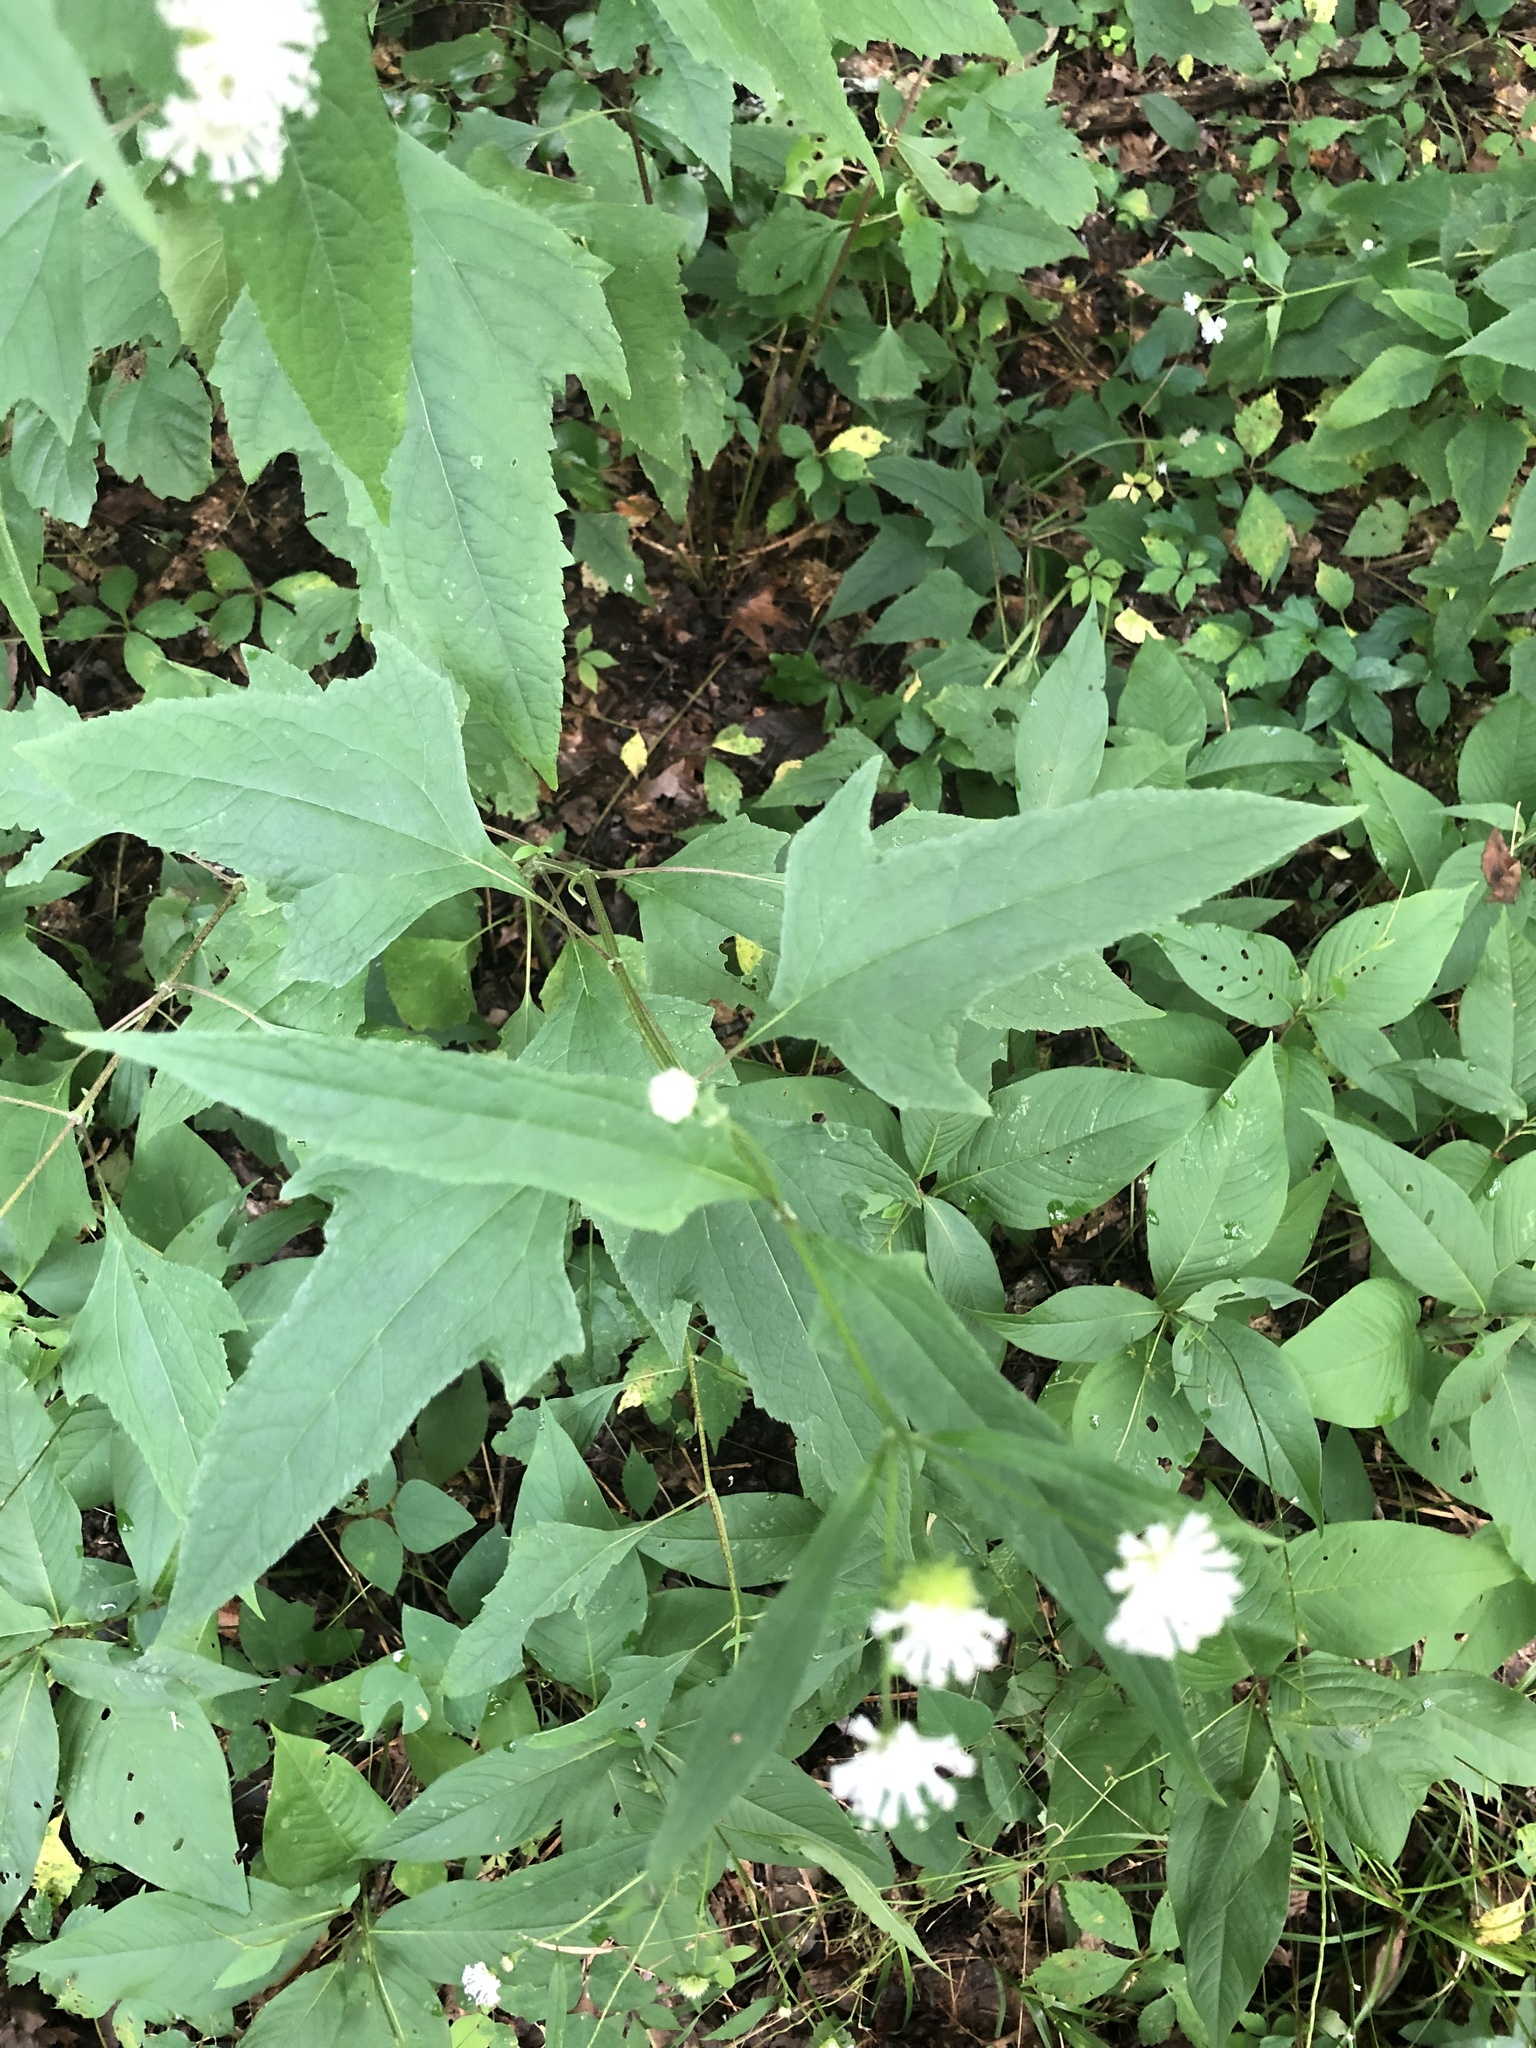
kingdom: Plantae
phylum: Tracheophyta
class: Magnoliopsida
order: Asterales
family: Asteraceae
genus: Melanthera
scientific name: Melanthera nivea
